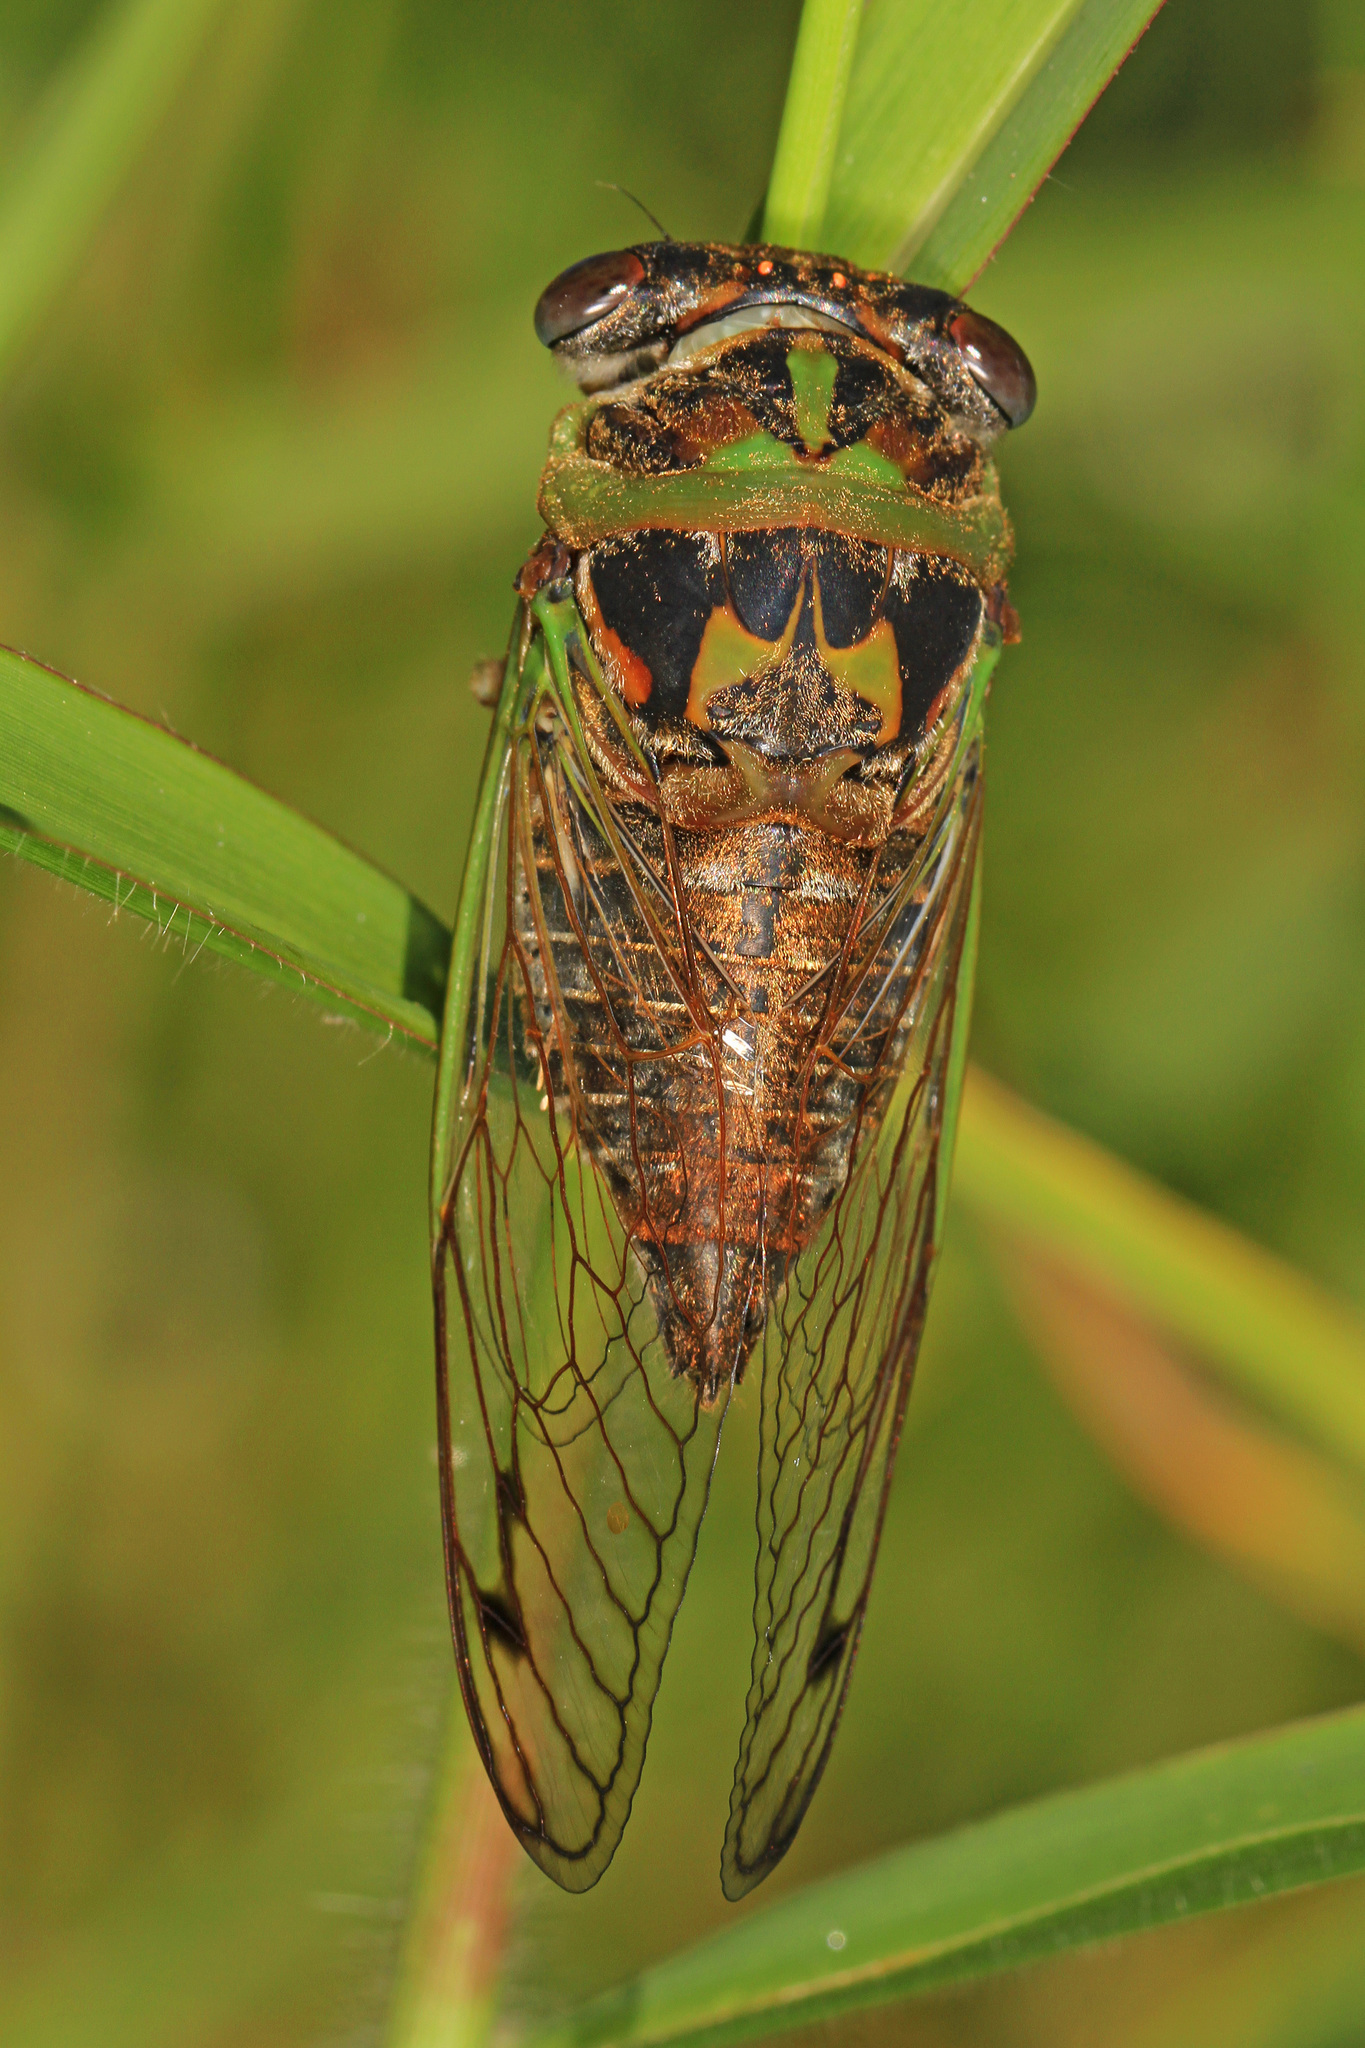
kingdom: Animalia
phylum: Arthropoda
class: Insecta
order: Hemiptera
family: Cicadidae
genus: Neotibicen
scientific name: Neotibicen davisi
